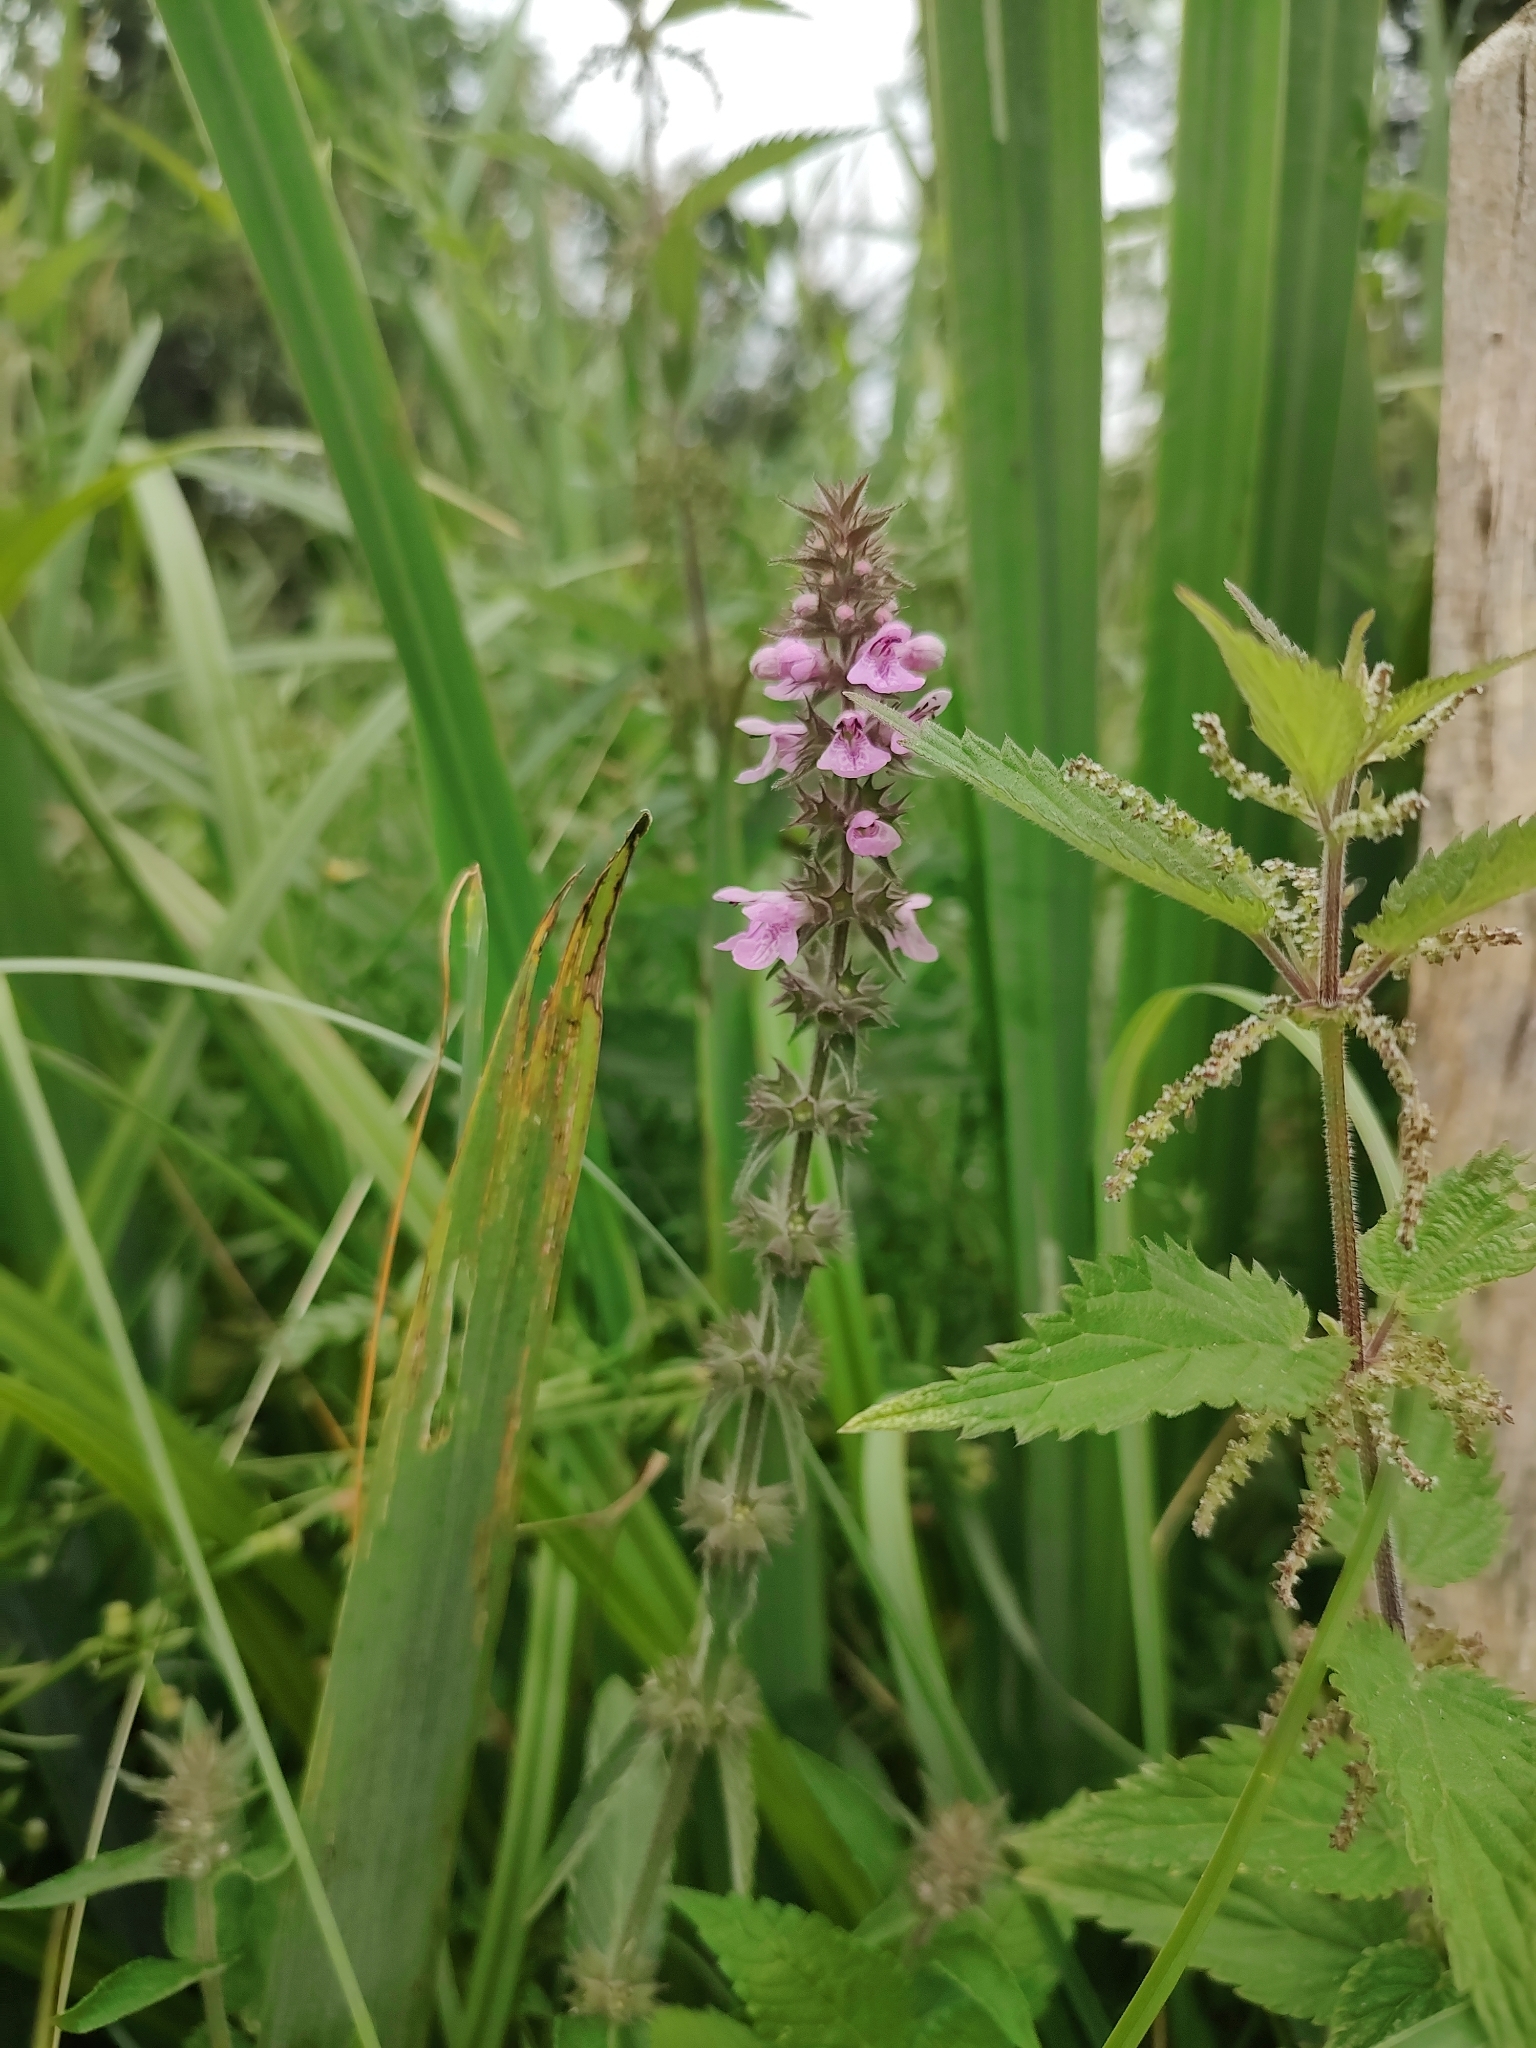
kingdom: Plantae
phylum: Tracheophyta
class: Magnoliopsida
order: Lamiales
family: Lamiaceae
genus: Stachys
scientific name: Stachys palustris
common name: Marsh woundwort
